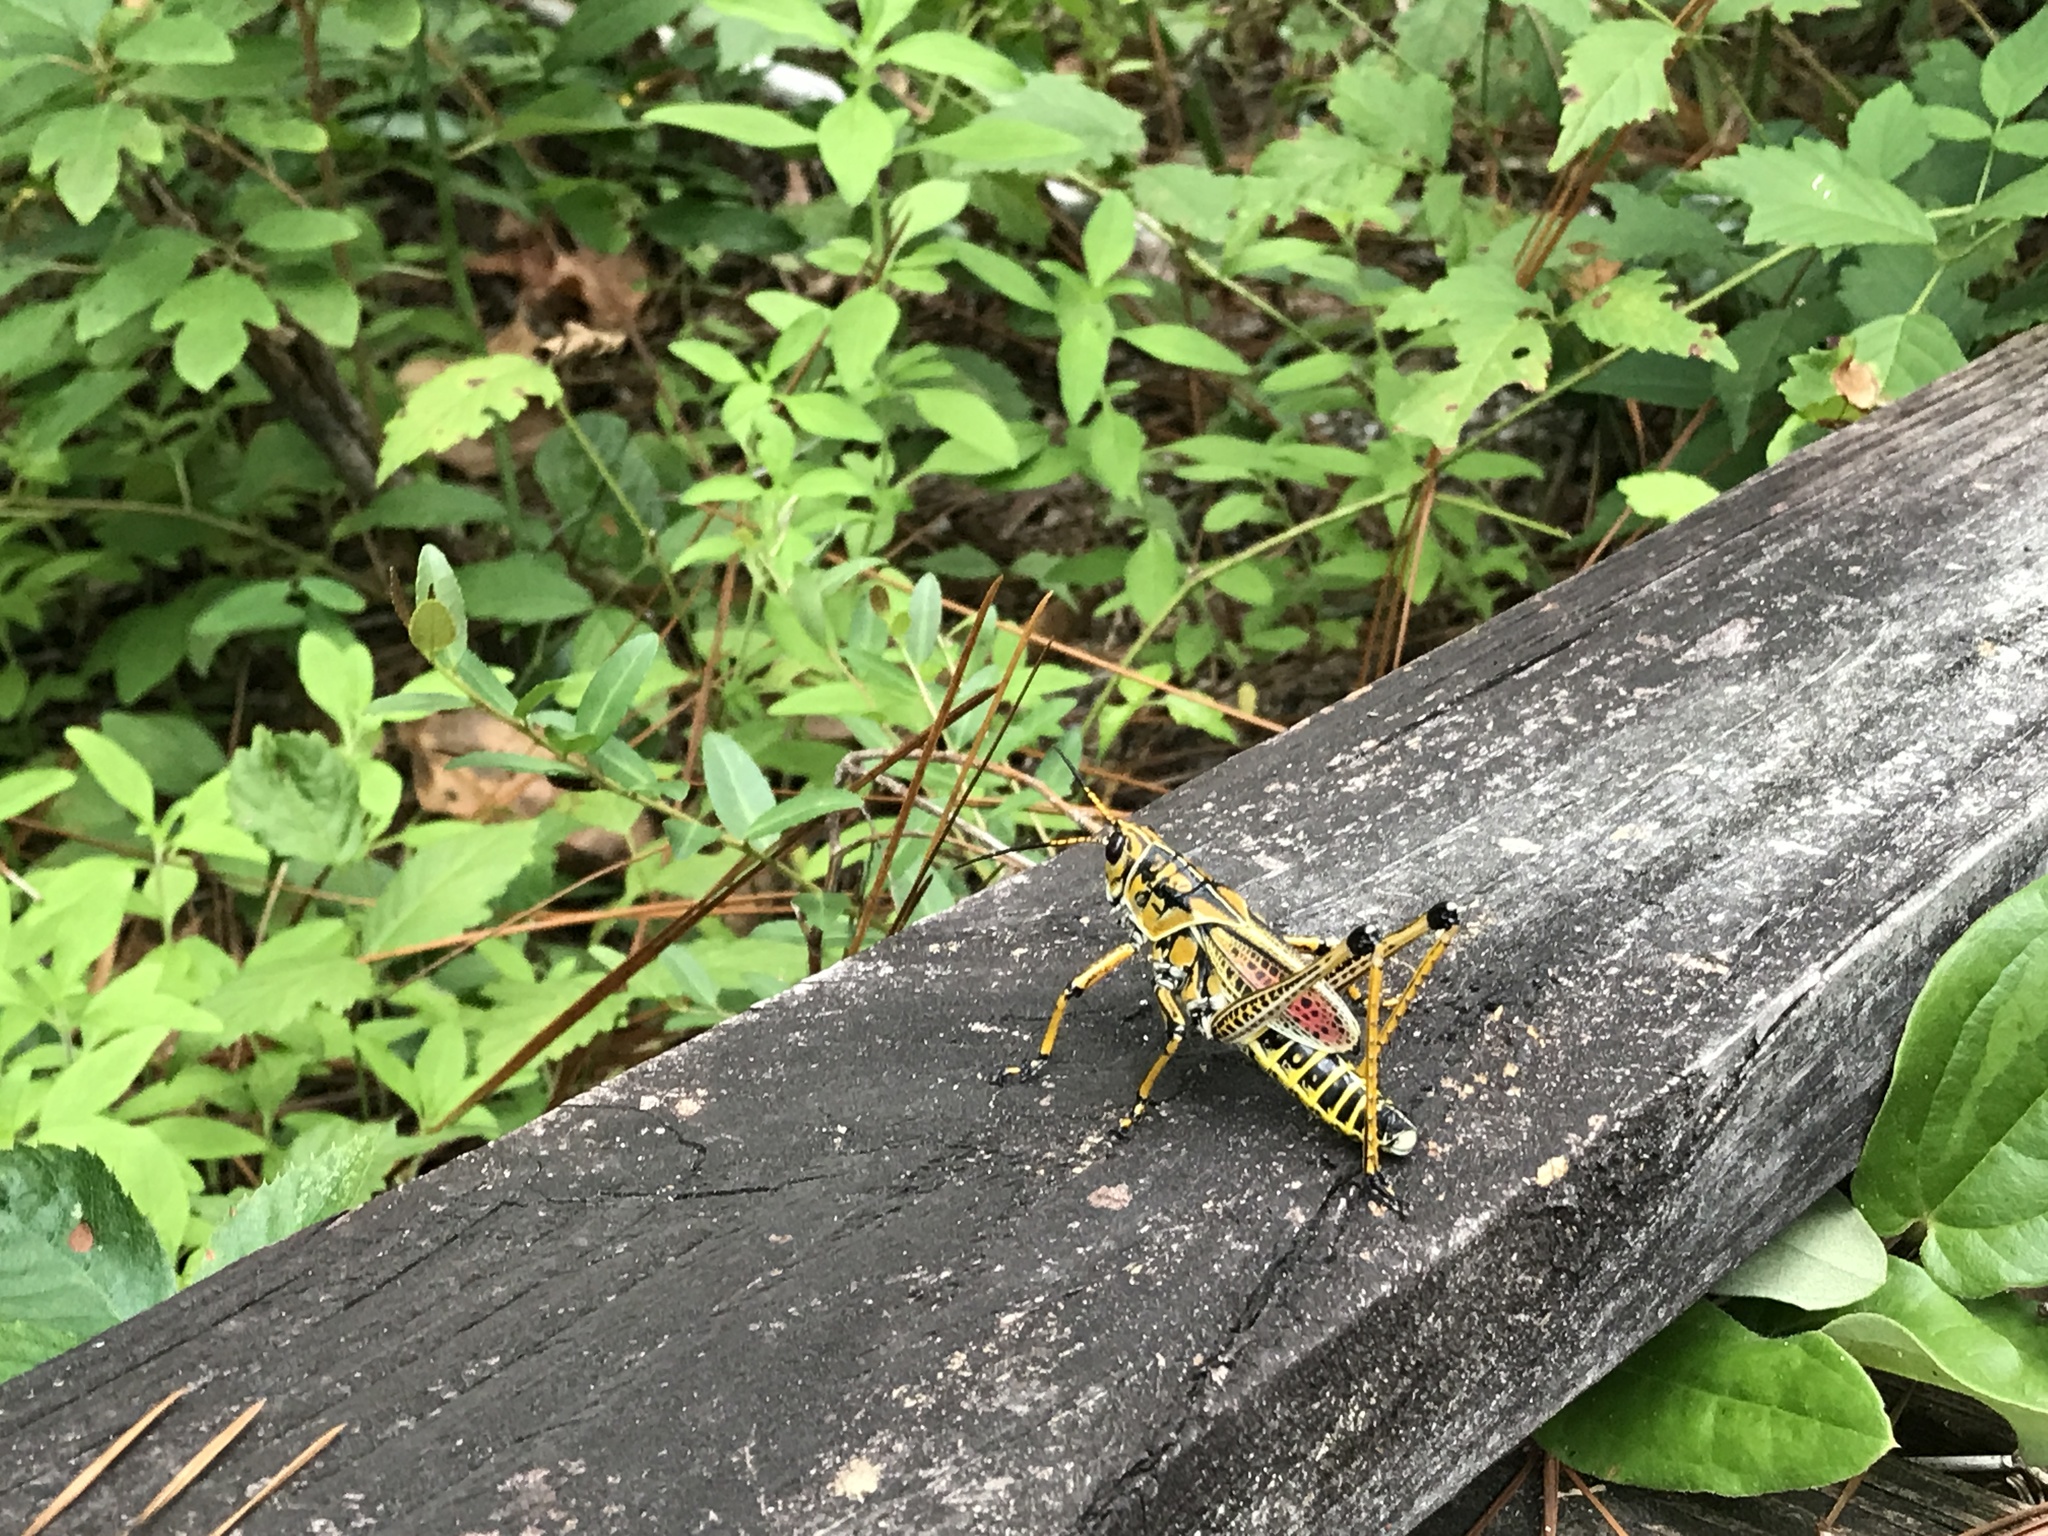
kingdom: Animalia
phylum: Arthropoda
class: Insecta
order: Orthoptera
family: Romaleidae
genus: Romalea
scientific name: Romalea microptera
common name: Eastern lubber grasshopper
